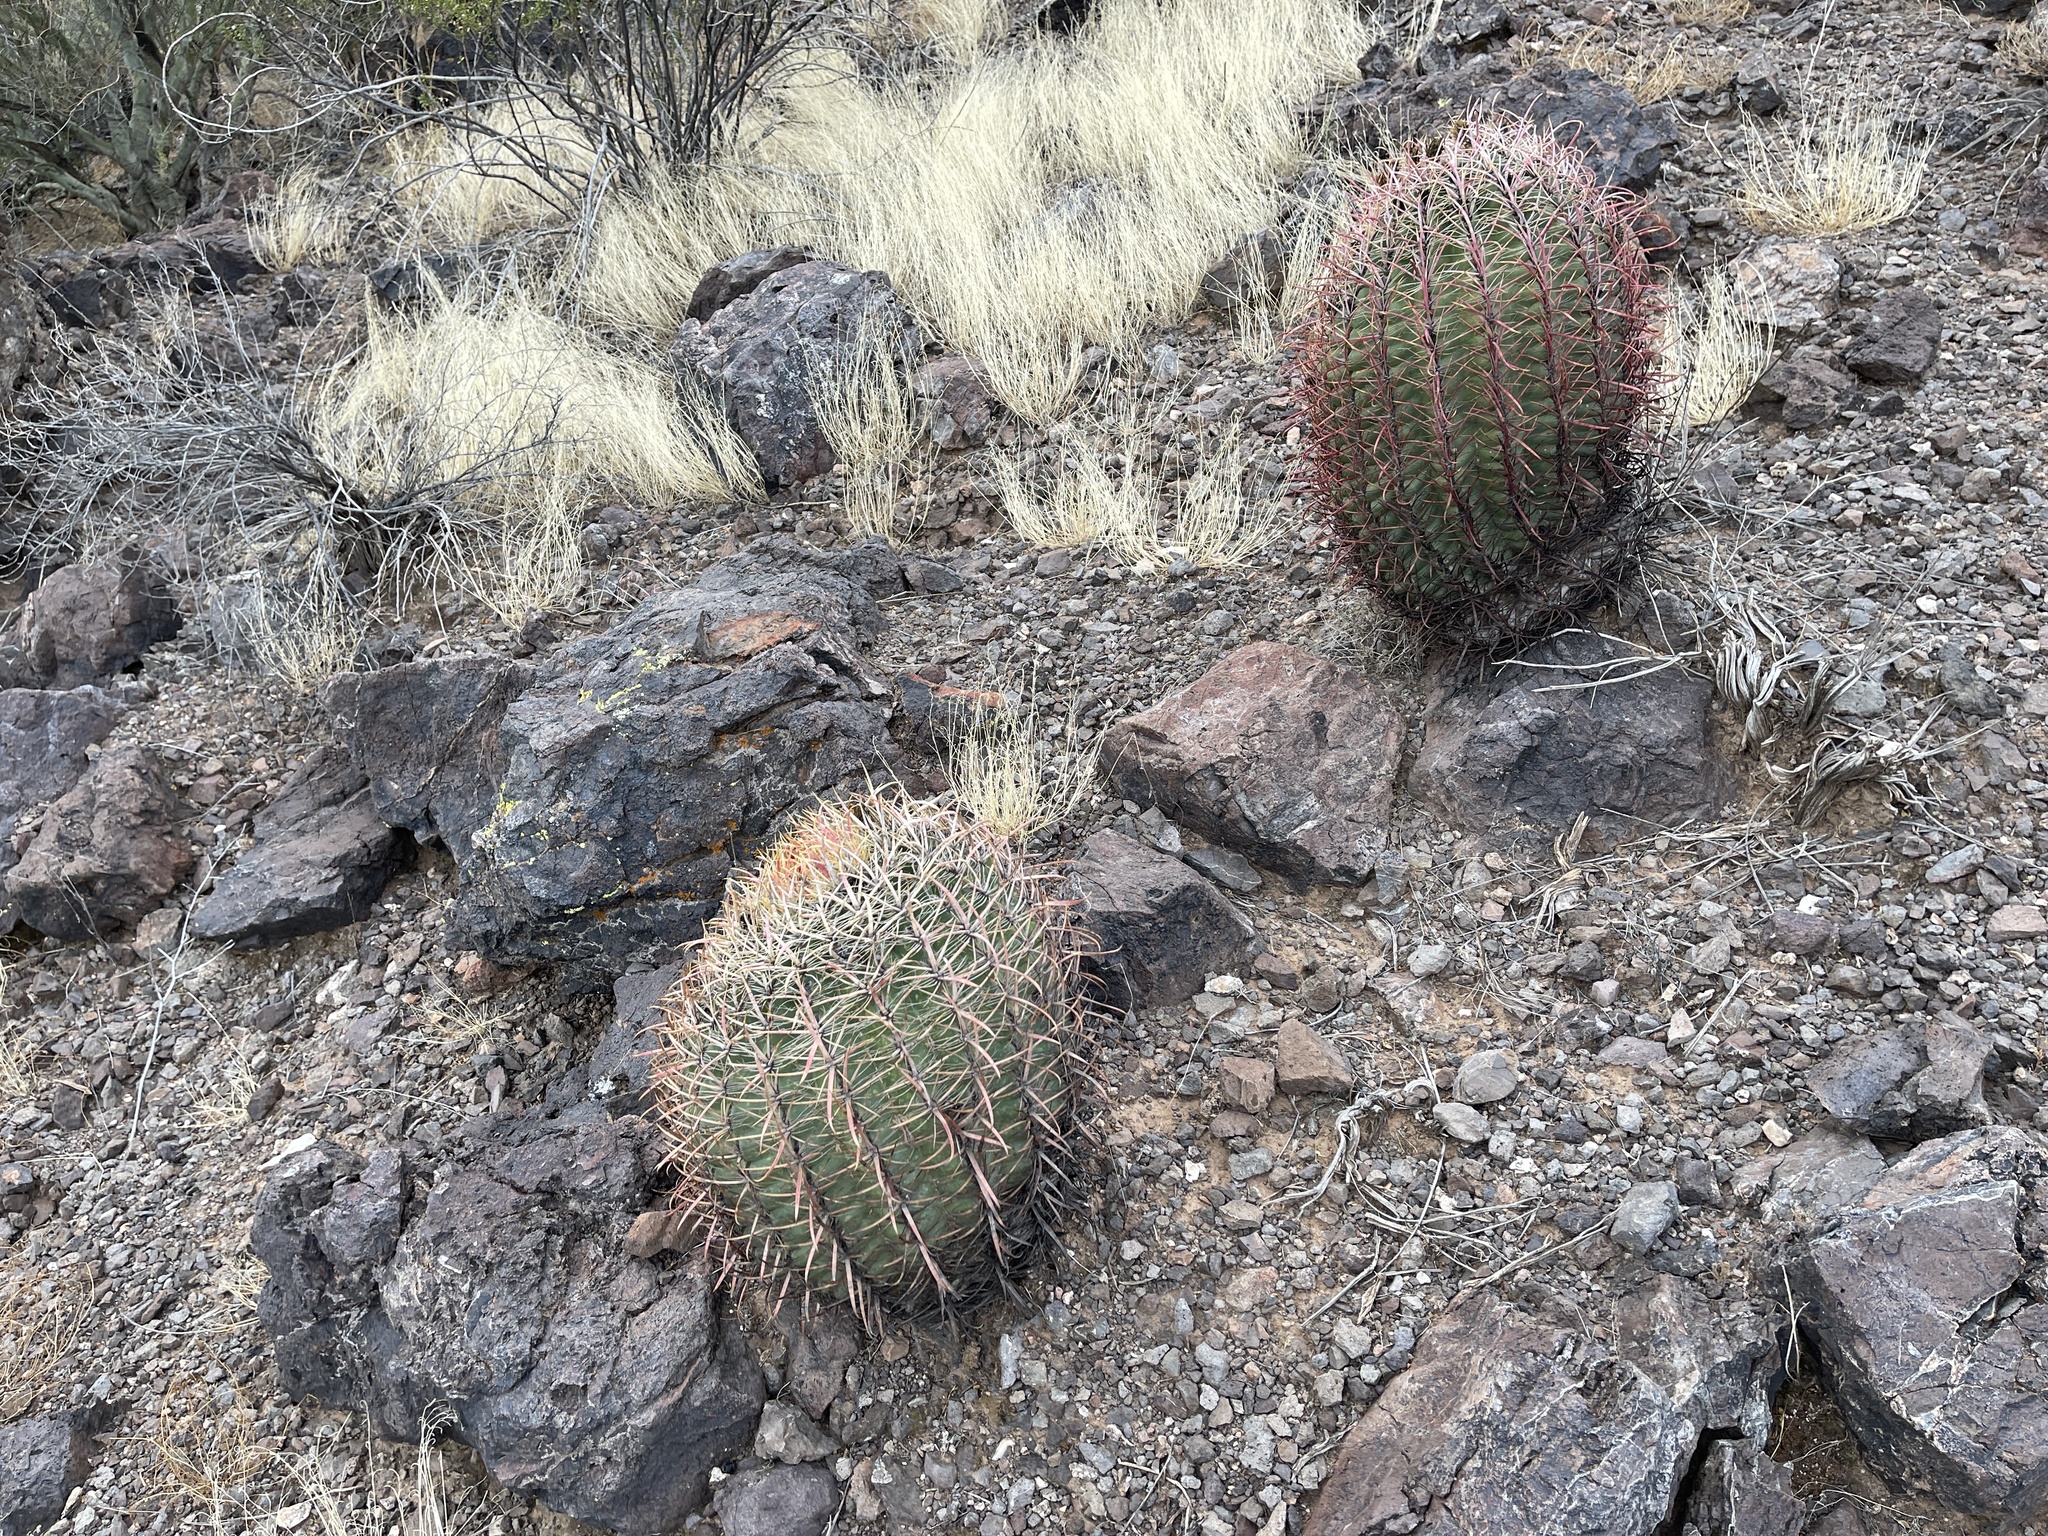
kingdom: Plantae
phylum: Tracheophyta
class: Magnoliopsida
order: Caryophyllales
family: Cactaceae
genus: Ferocactus
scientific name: Ferocactus cylindraceus
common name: California barrel cactus
